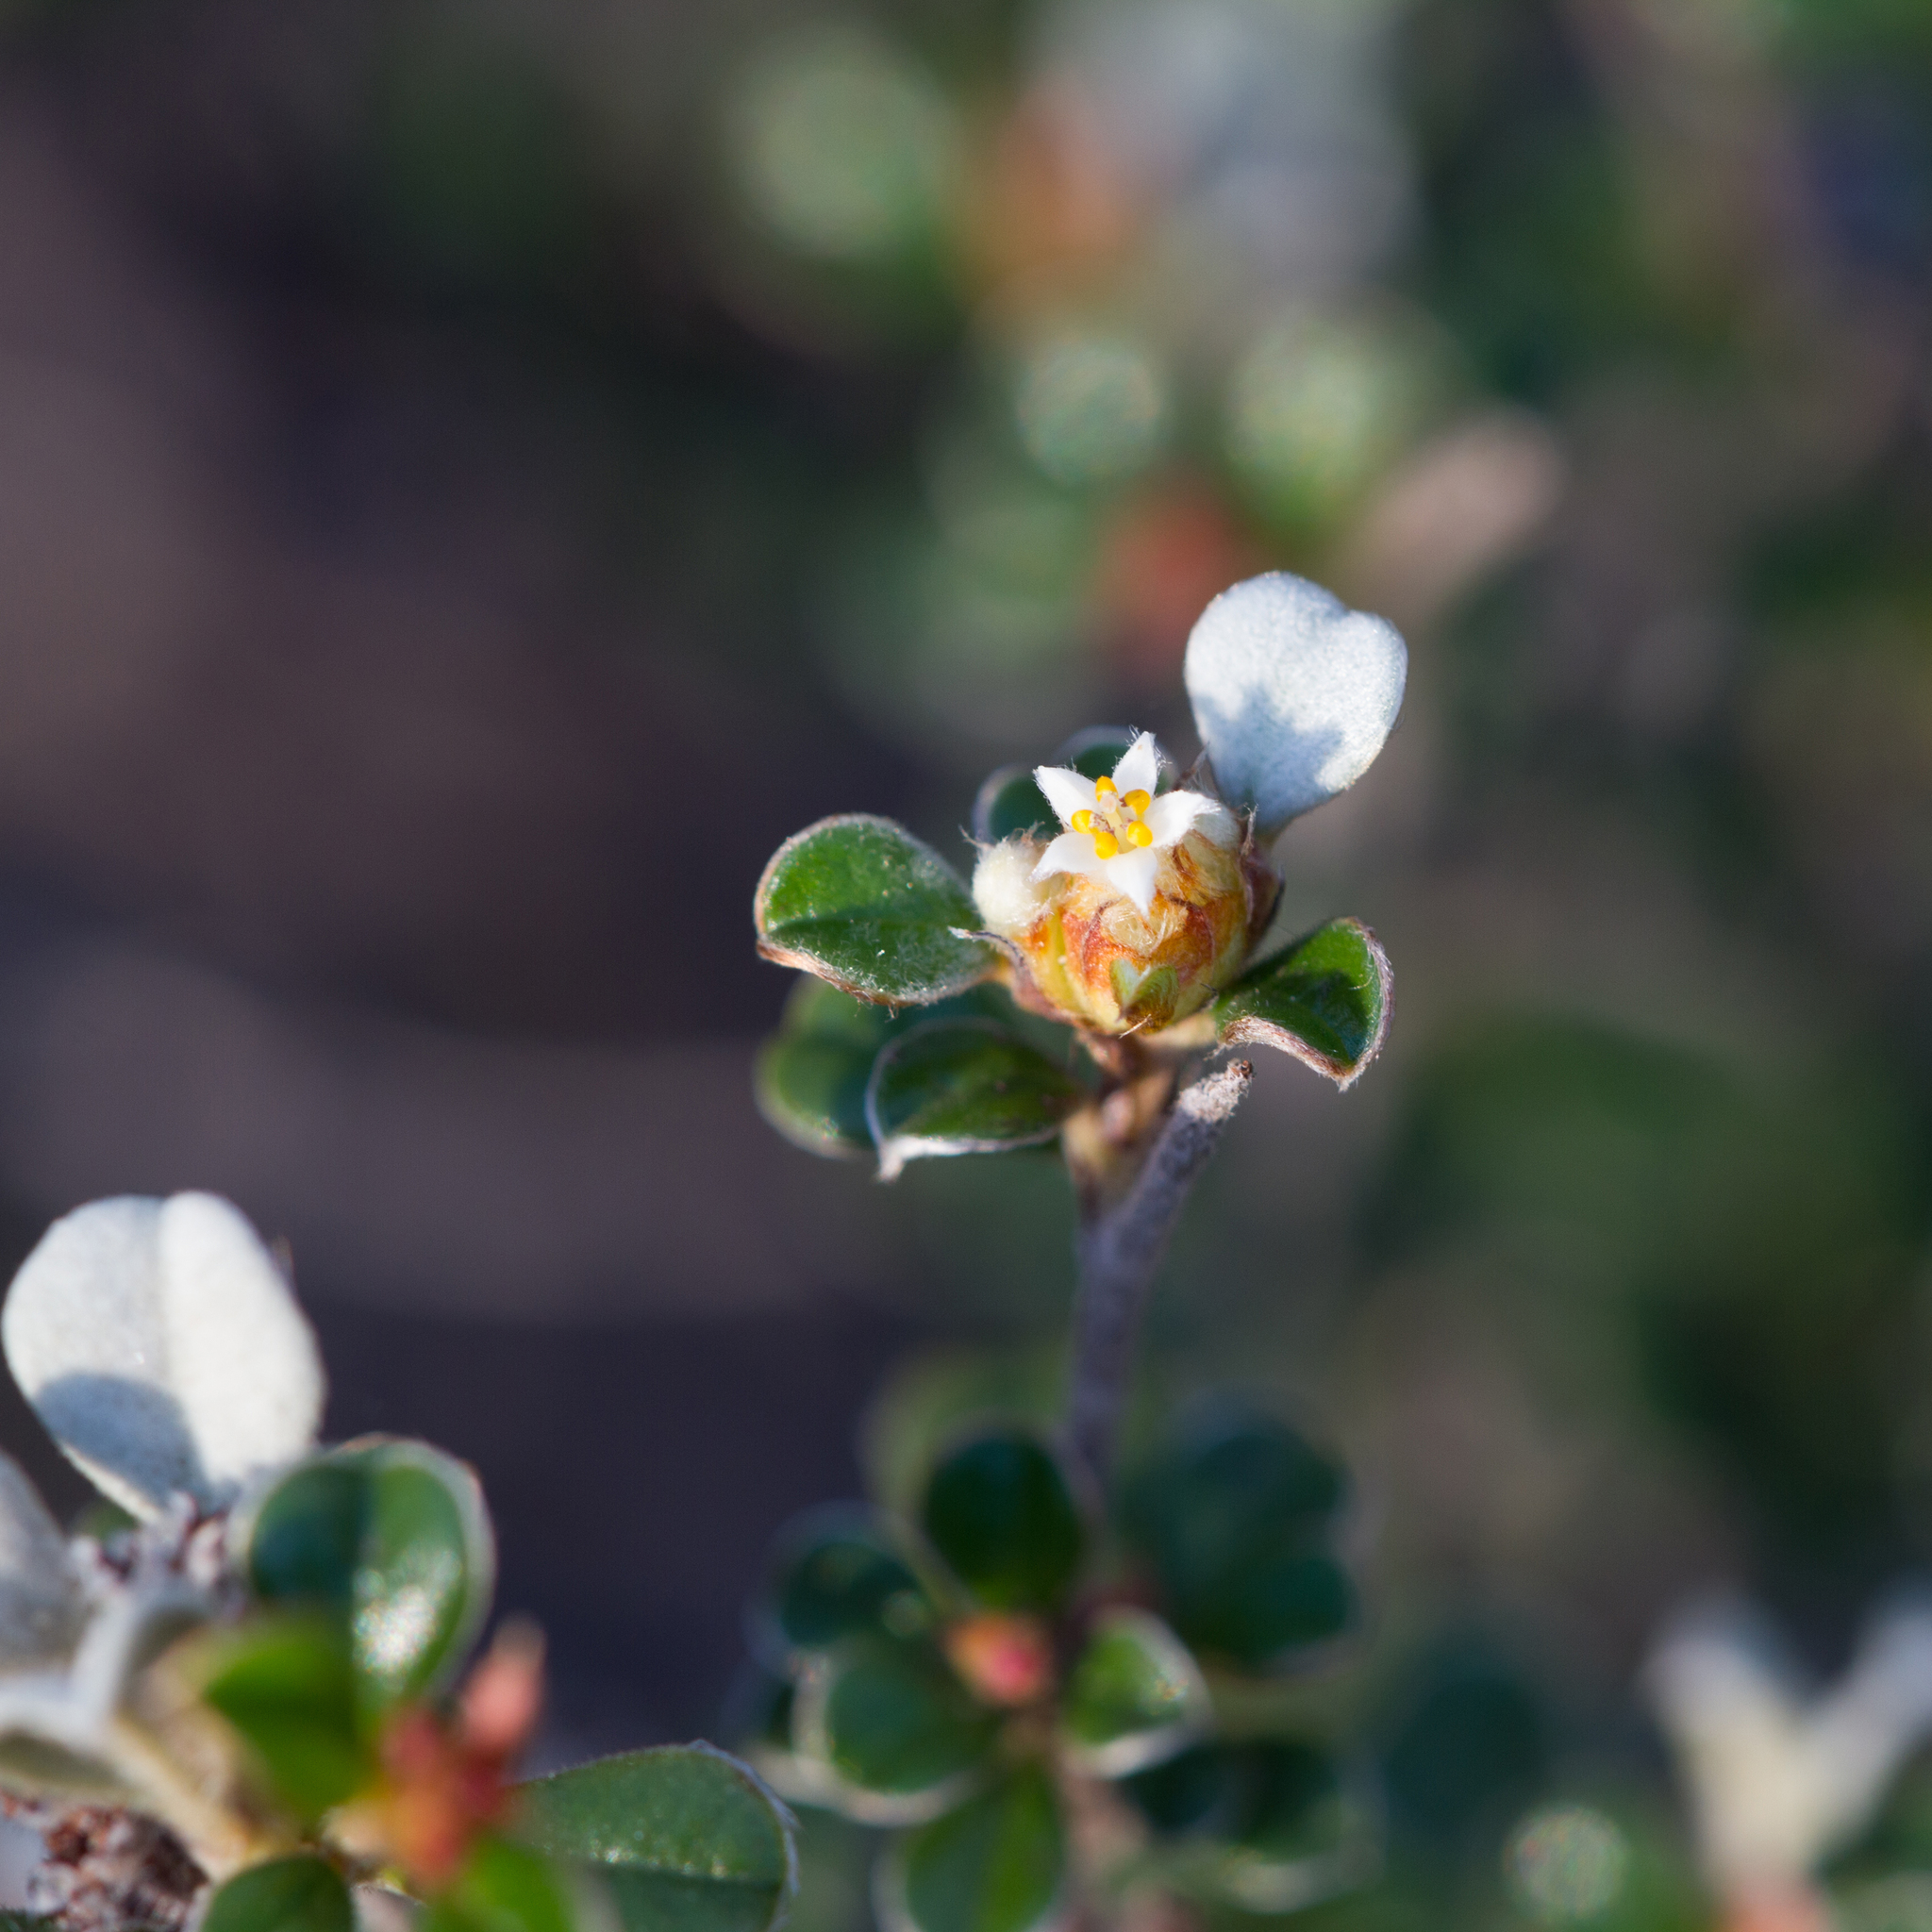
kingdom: Plantae
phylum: Tracheophyta
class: Magnoliopsida
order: Rosales
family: Rhamnaceae
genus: Cryptandra
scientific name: Cryptandra leucophracta
